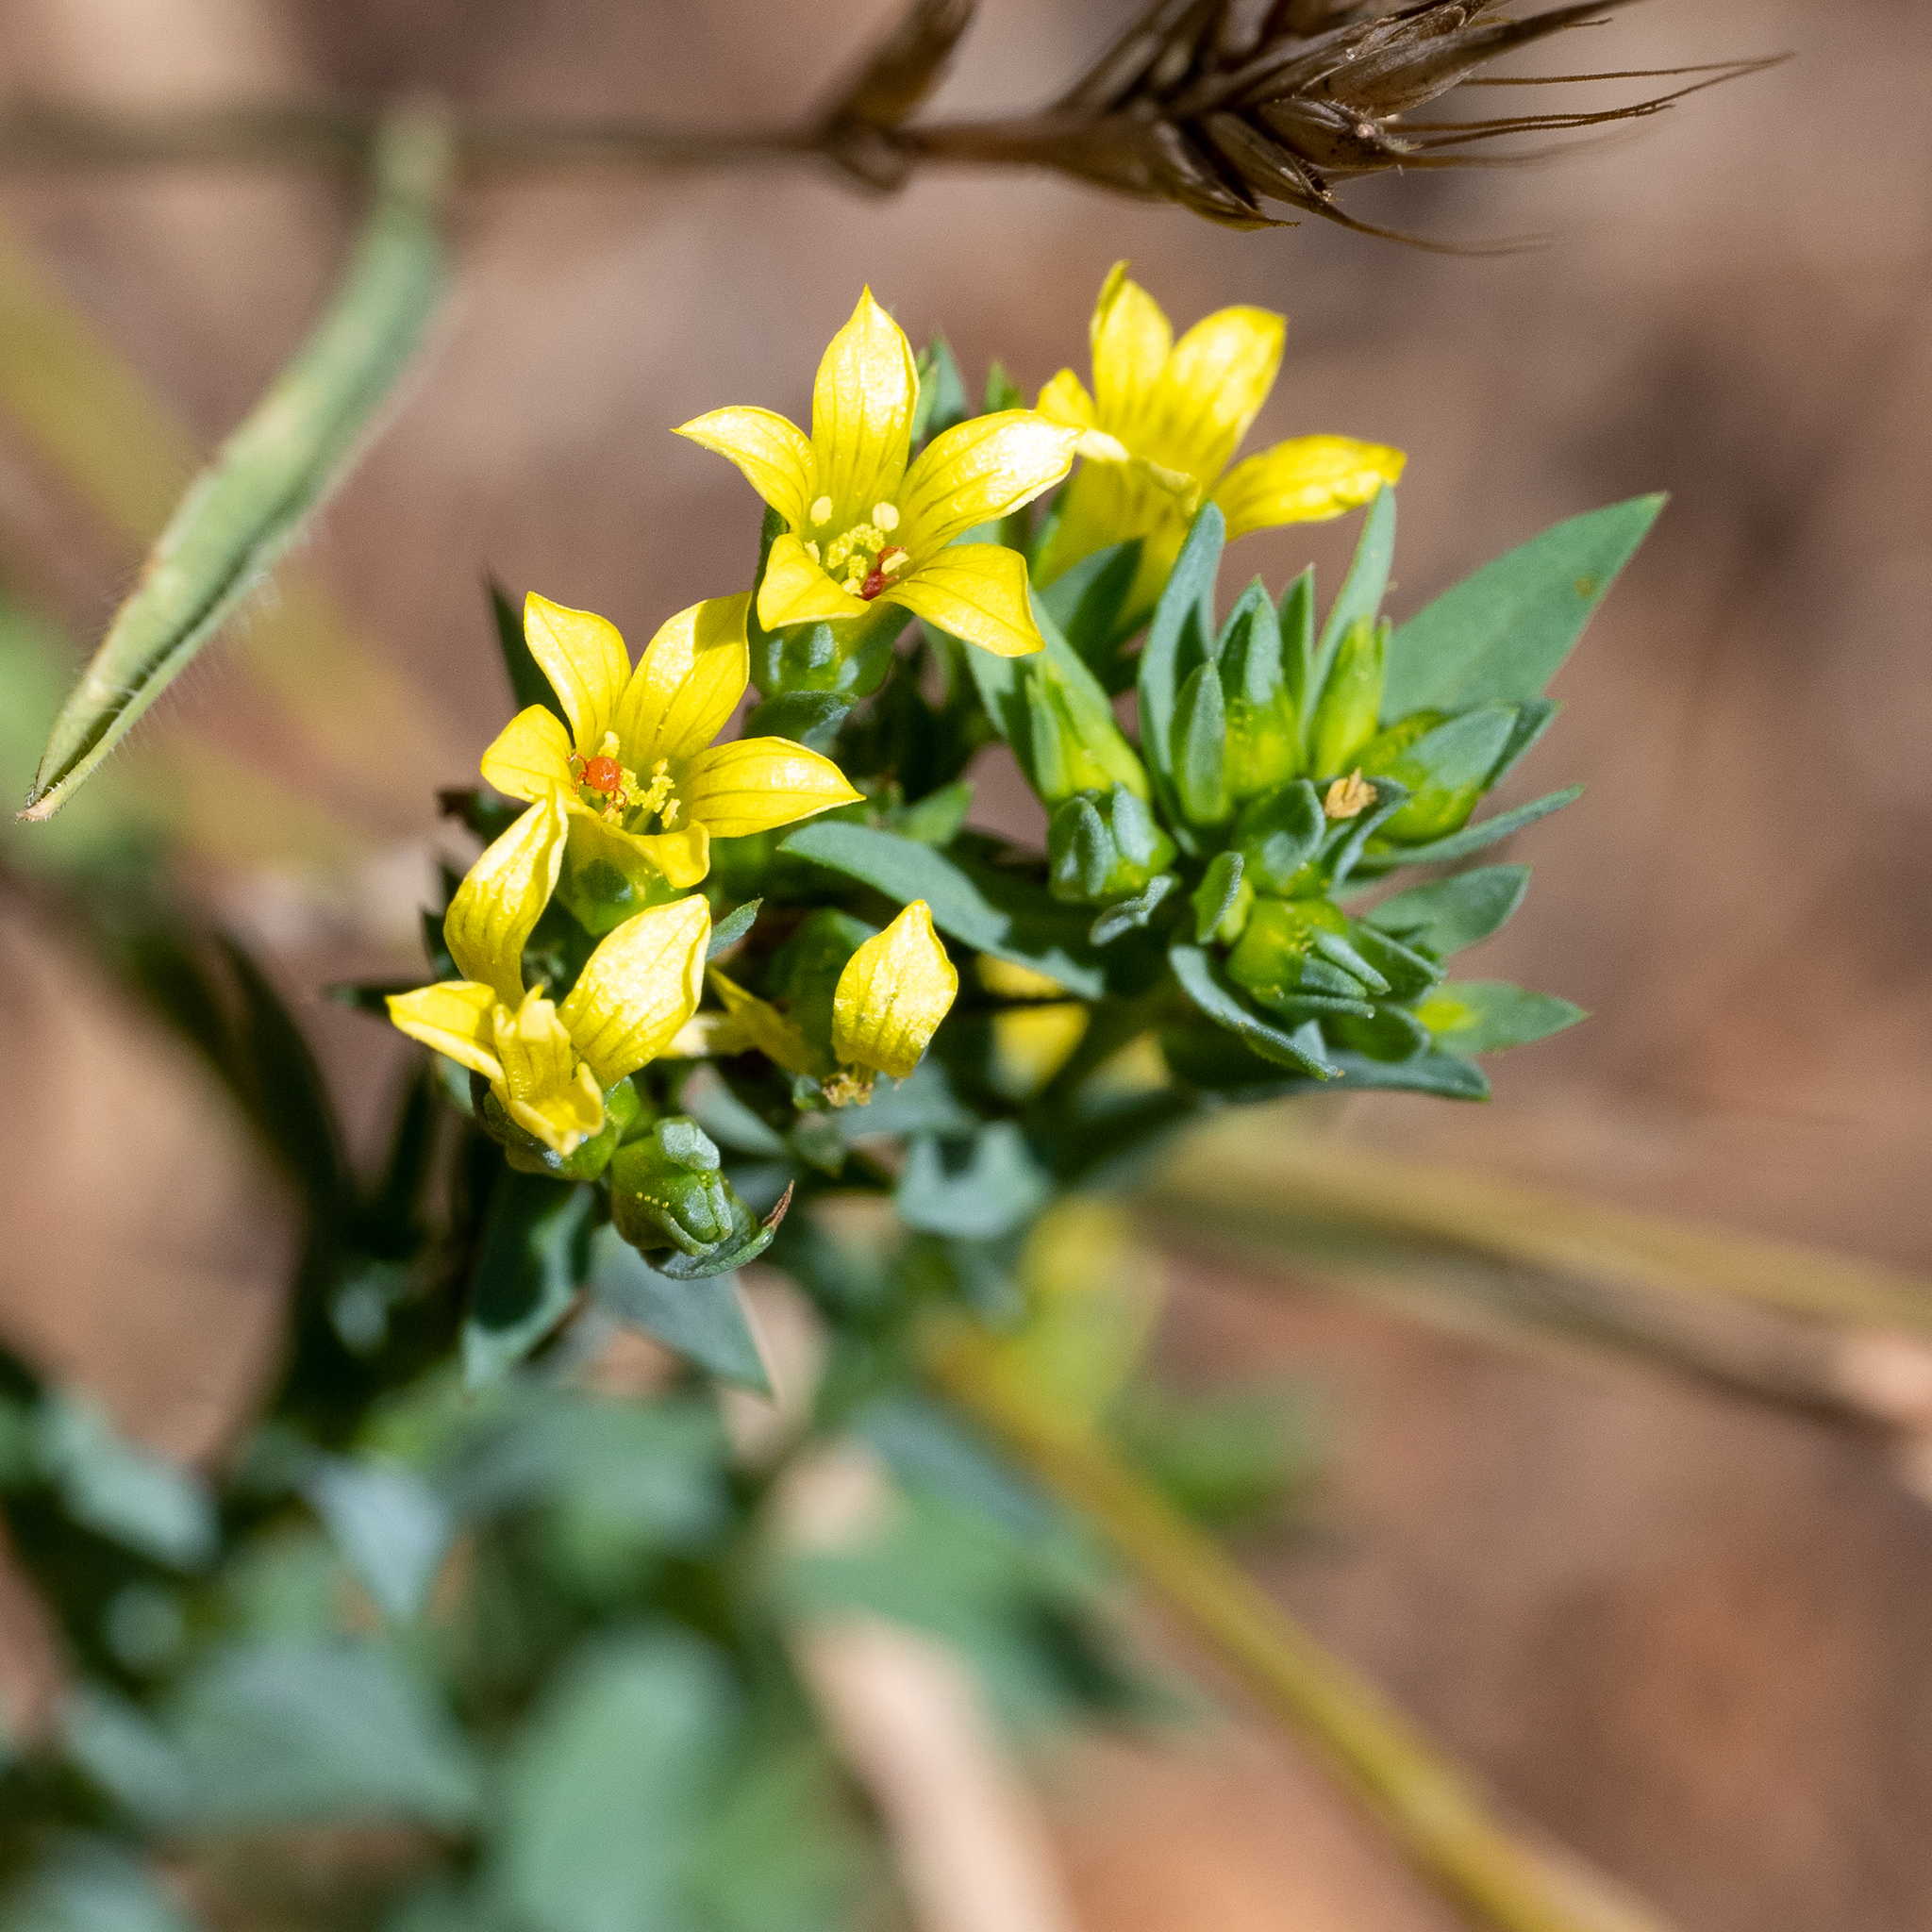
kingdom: Plantae
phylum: Tracheophyta
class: Magnoliopsida
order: Malpighiales
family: Linaceae
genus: Linum
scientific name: Linum strictum
